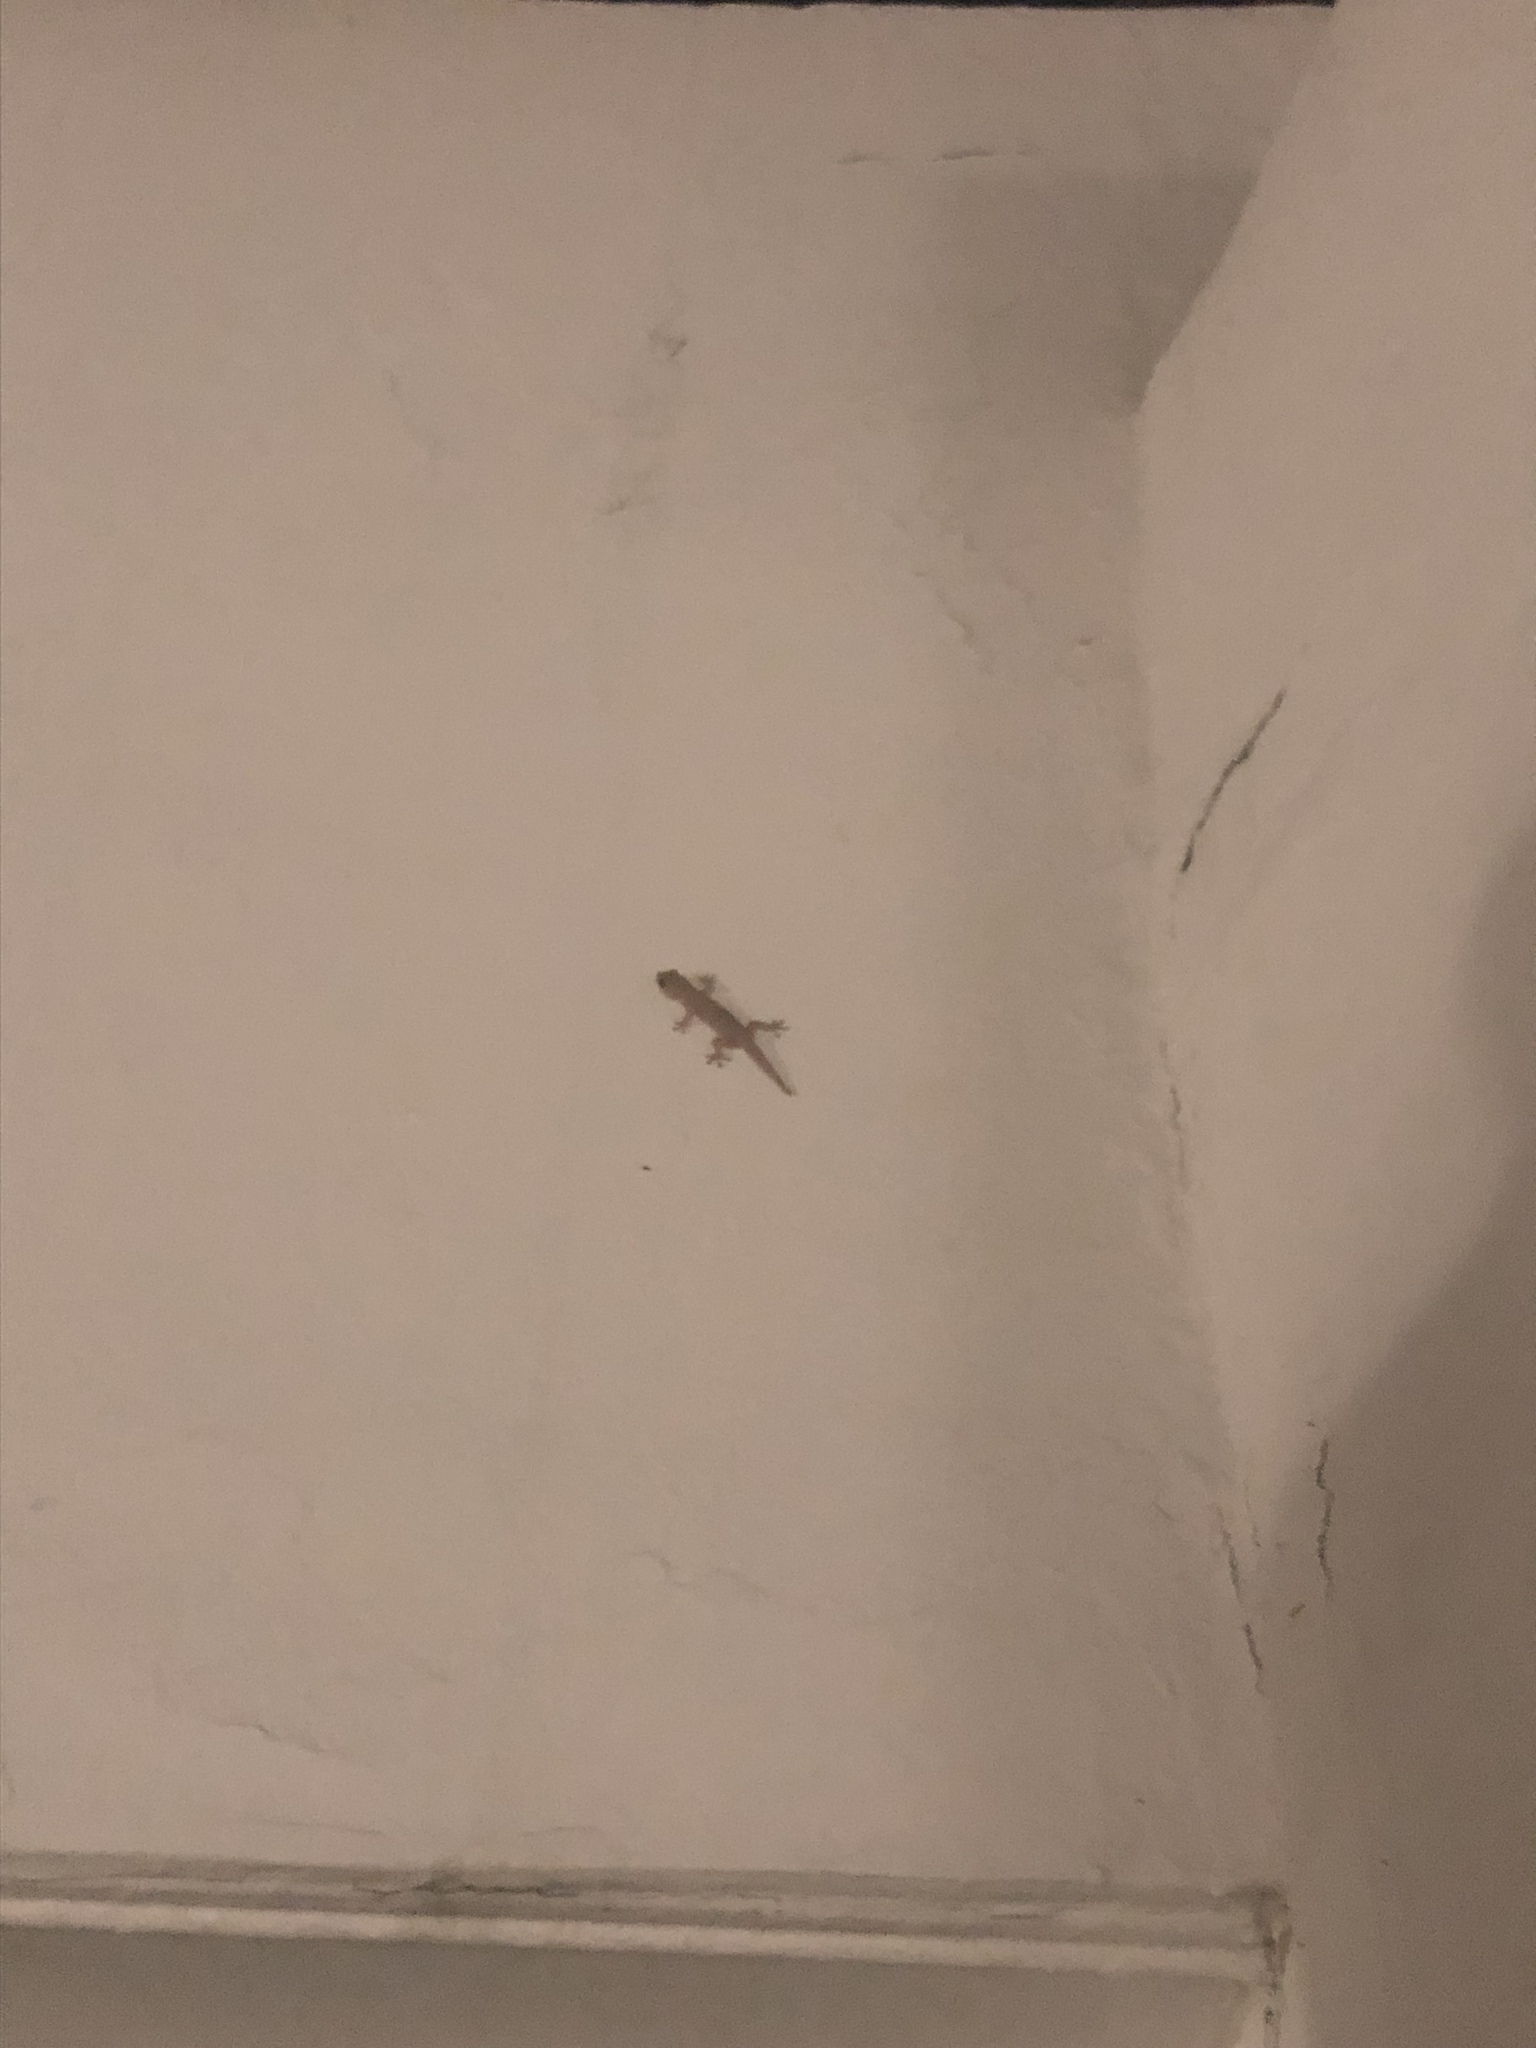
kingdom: Animalia
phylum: Chordata
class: Squamata
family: Gekkonidae
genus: Hemidactylus
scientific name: Hemidactylus frenatus
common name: Common house gecko
